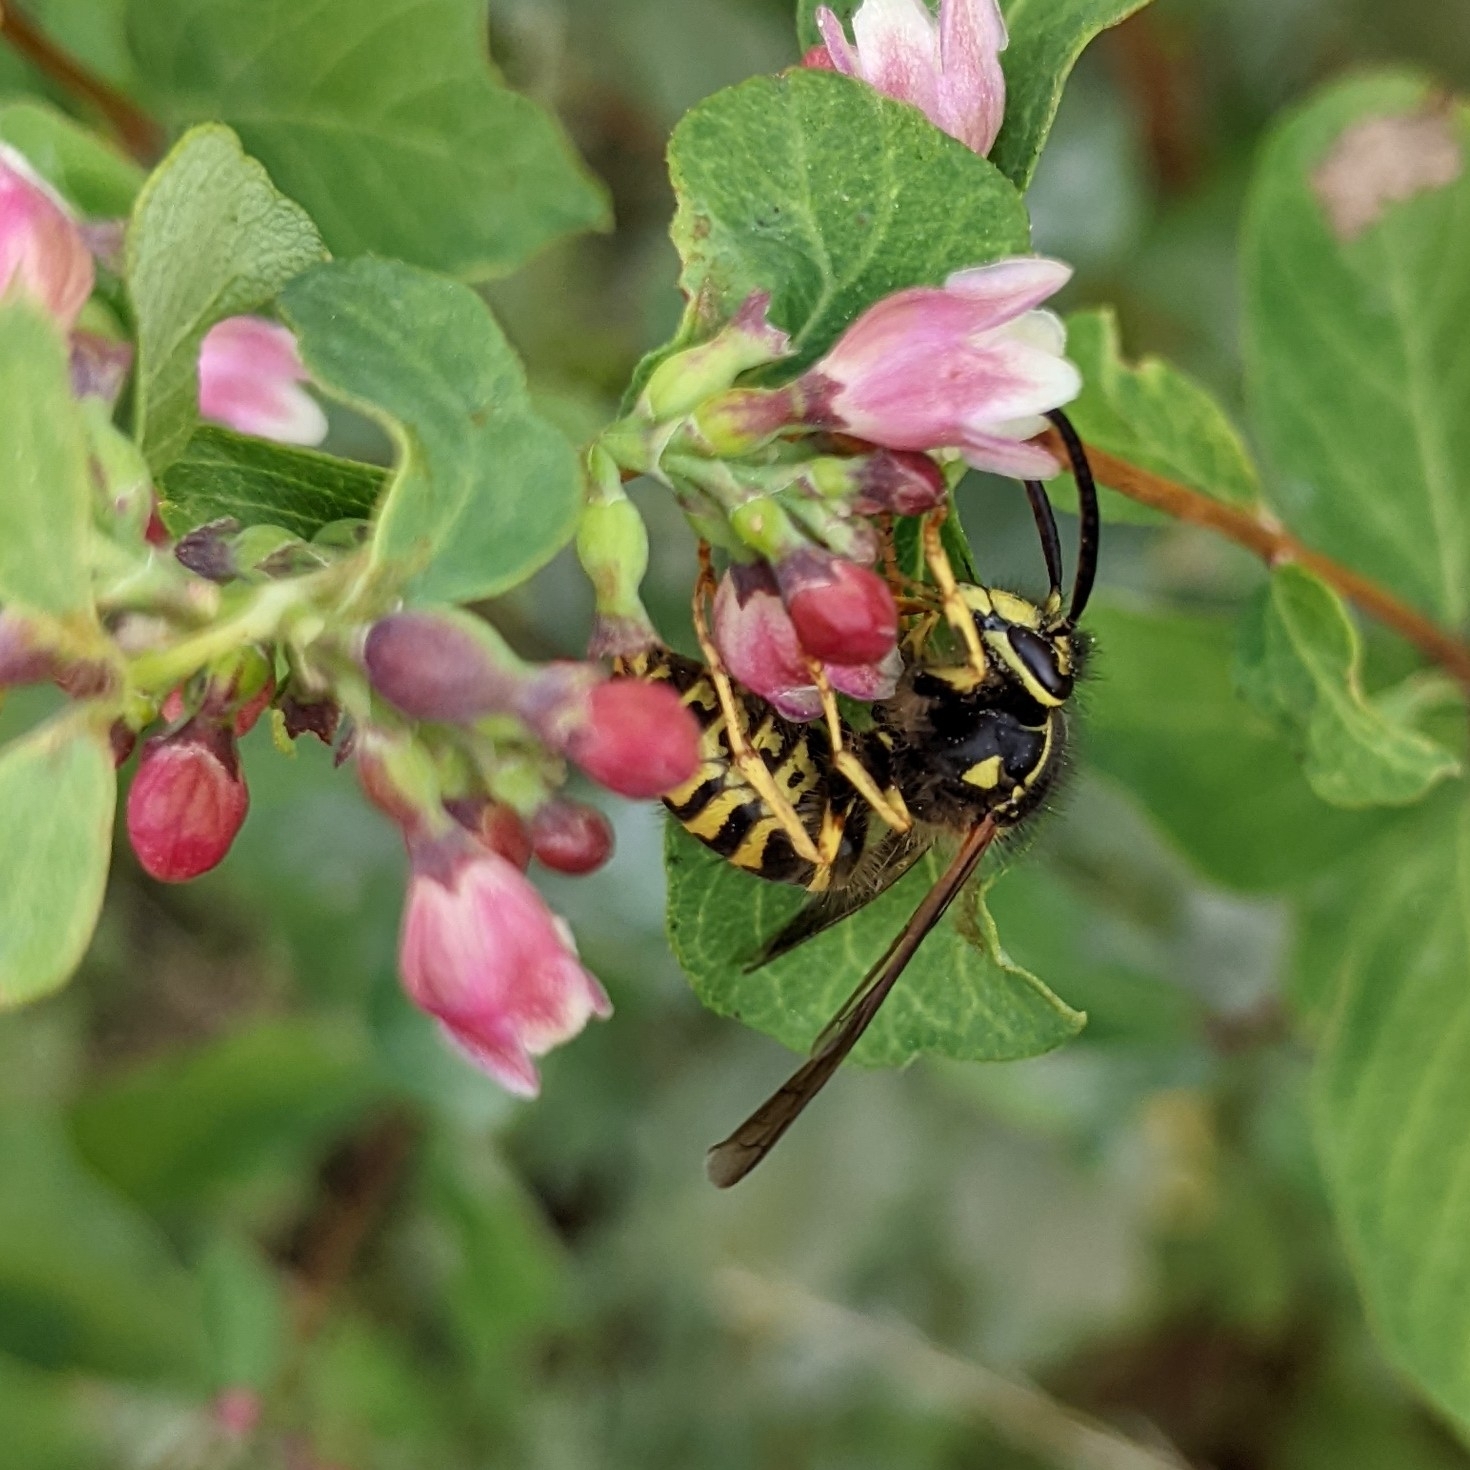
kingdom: Animalia
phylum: Arthropoda
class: Insecta
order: Hymenoptera
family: Vespidae
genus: Dolichovespula
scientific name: Dolichovespula arenaria
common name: Aerial yellowjacket
